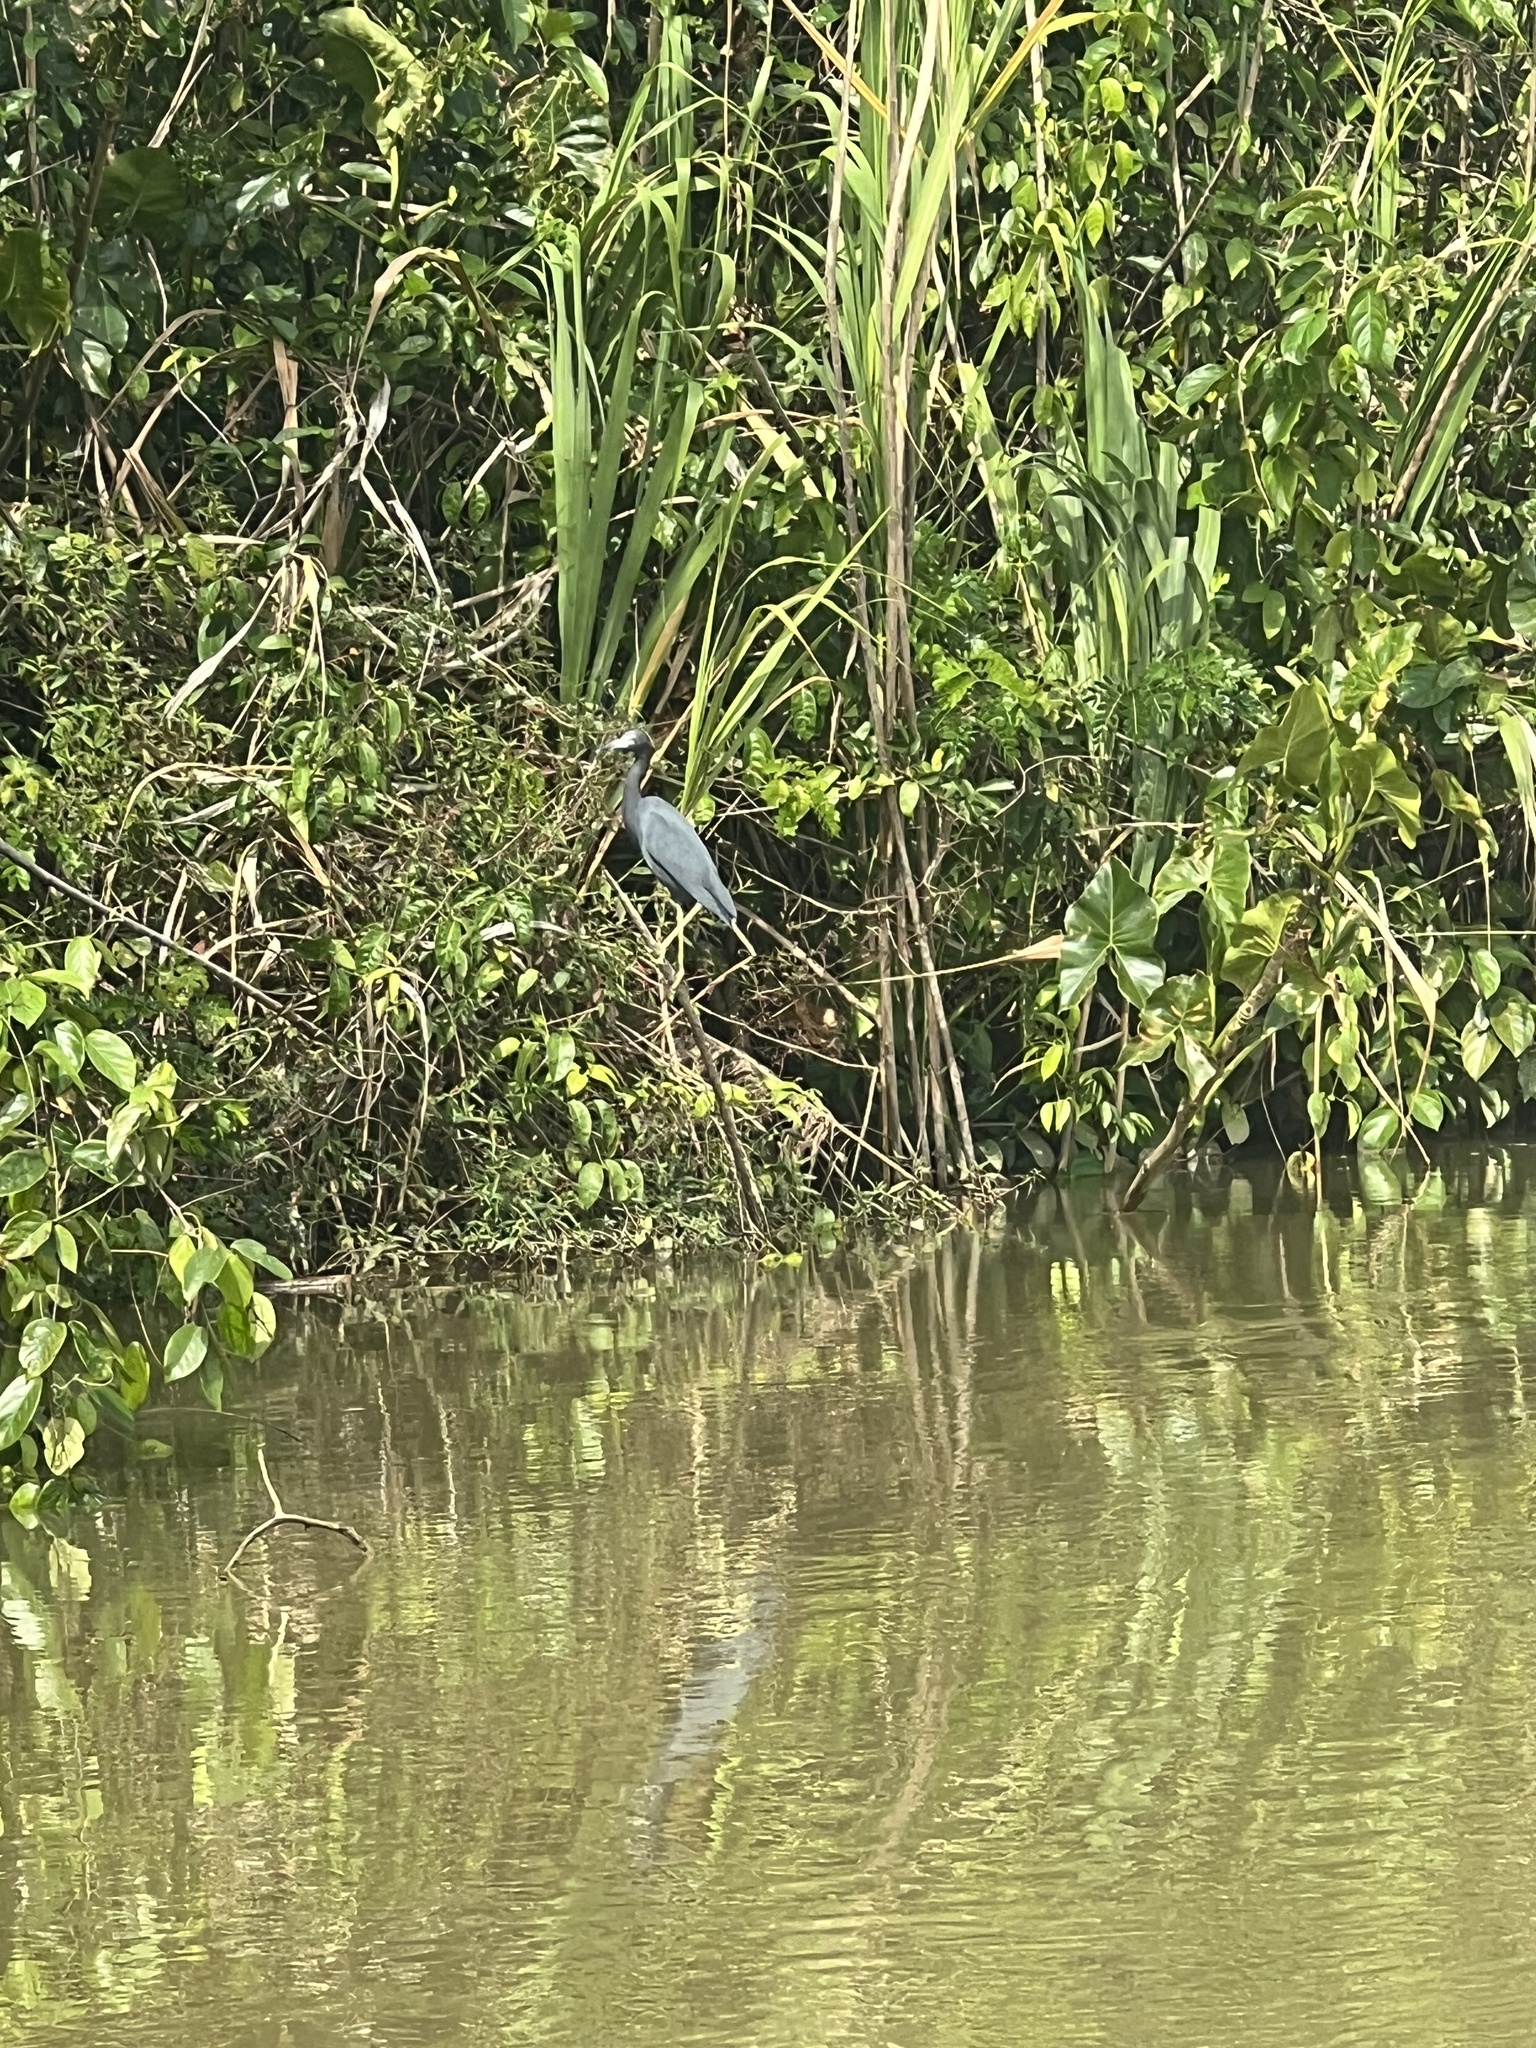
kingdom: Animalia
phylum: Chordata
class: Aves
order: Pelecaniformes
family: Ardeidae
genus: Egretta
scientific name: Egretta caerulea
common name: Little blue heron
